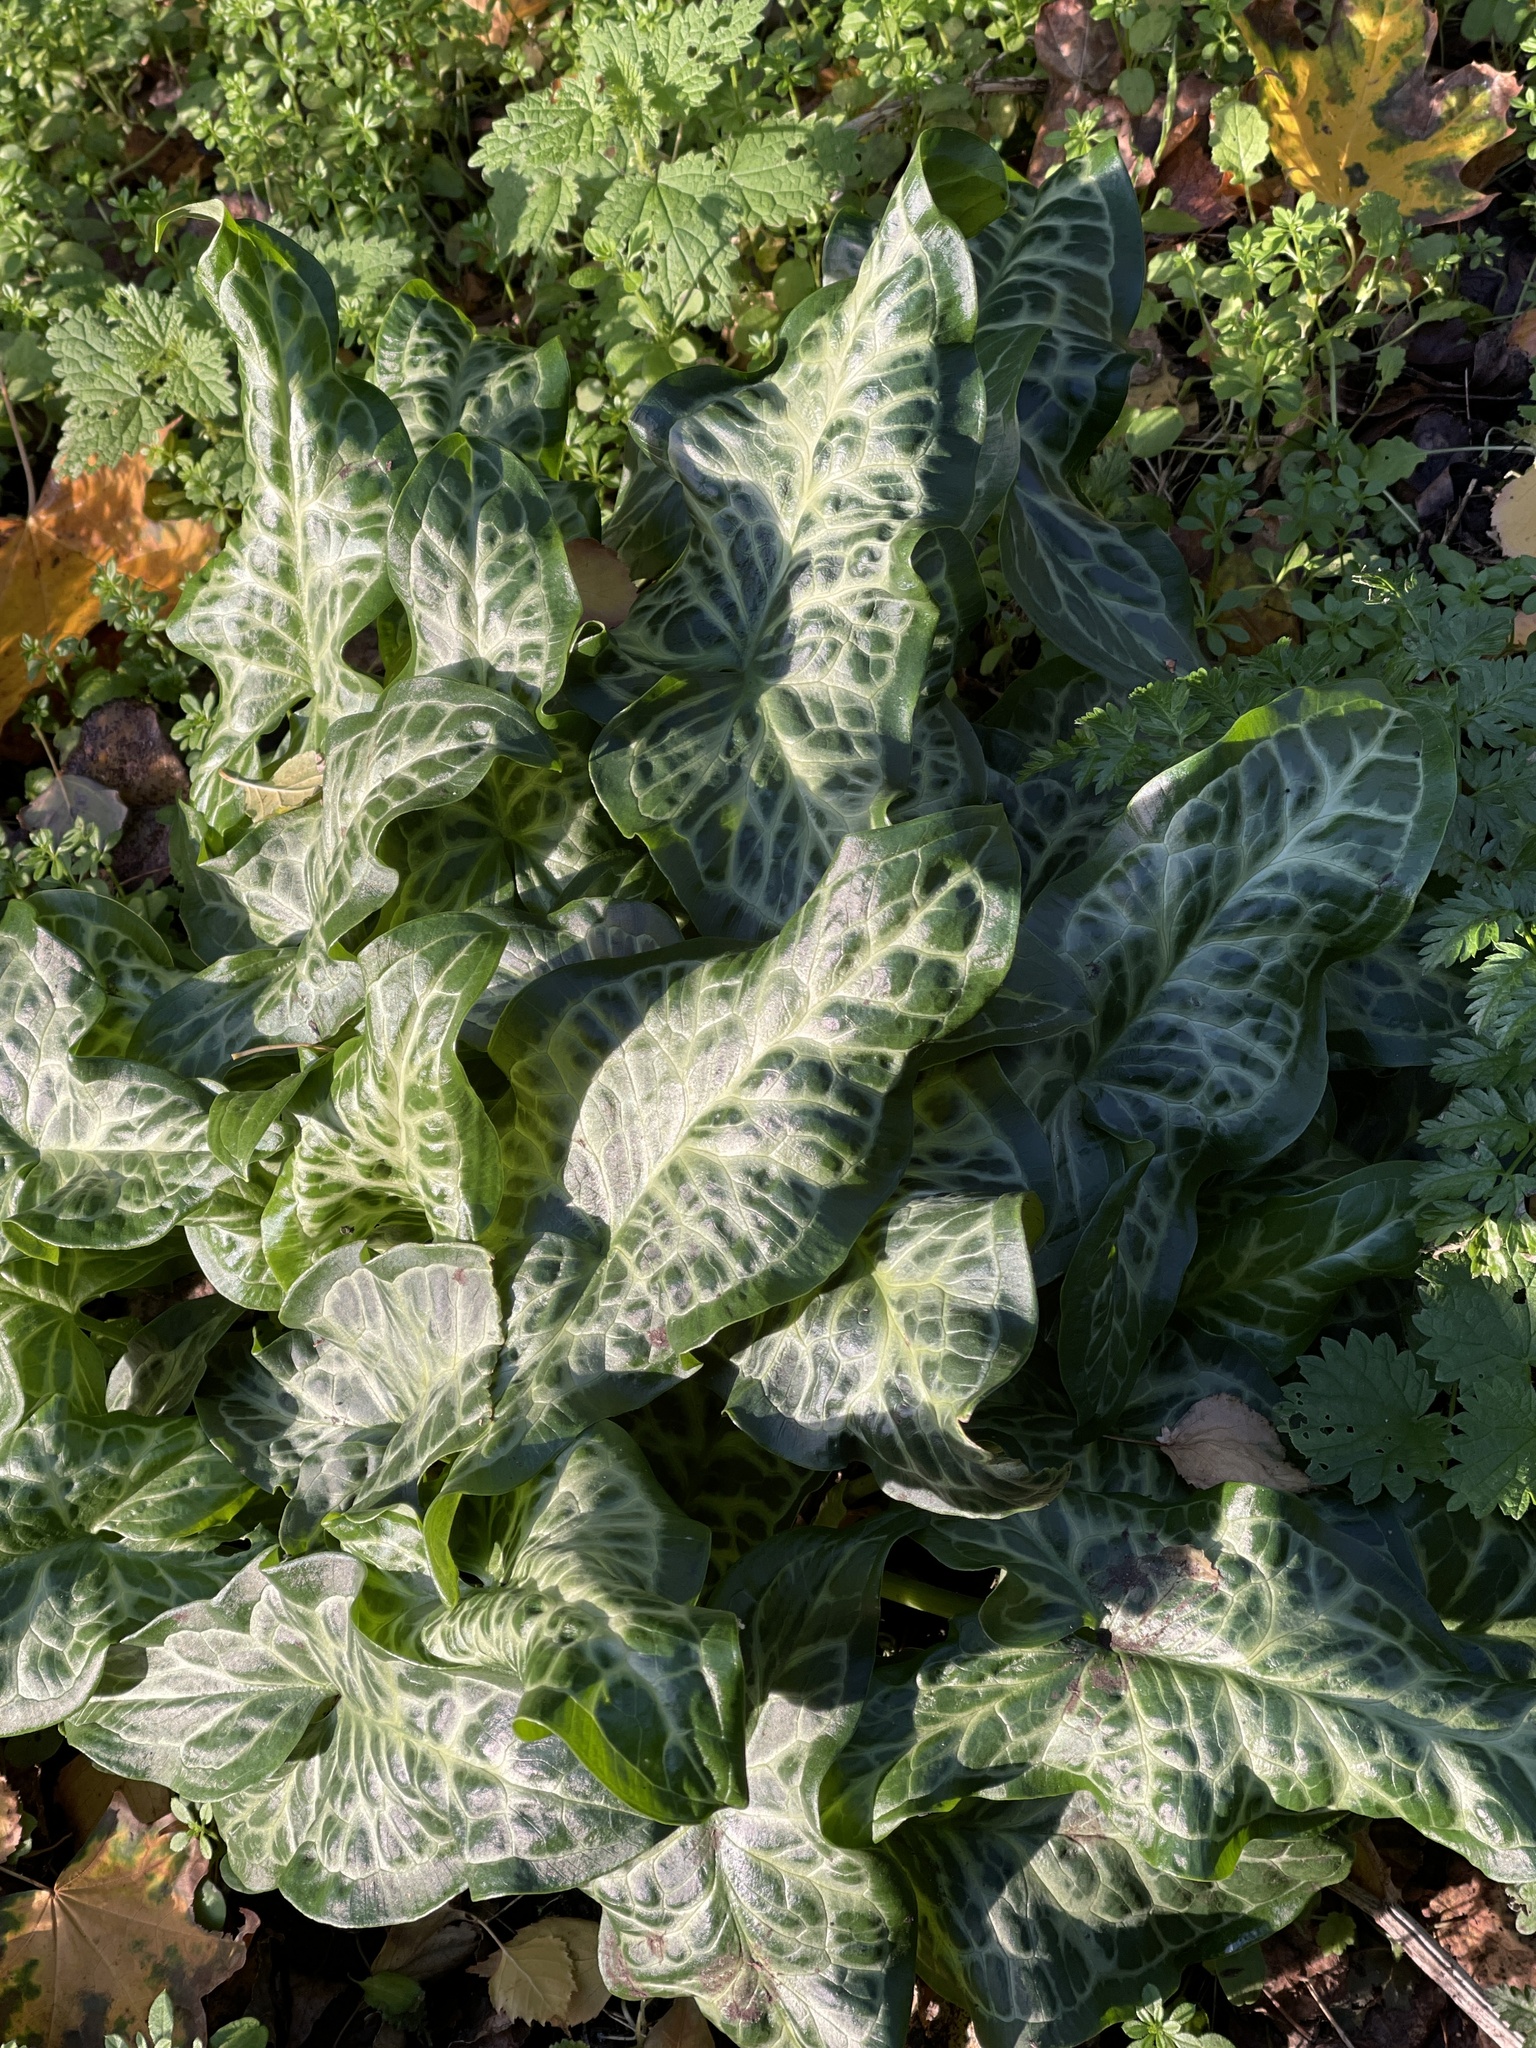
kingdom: Plantae
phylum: Tracheophyta
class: Liliopsida
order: Alismatales
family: Araceae
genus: Arum
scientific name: Arum italicum
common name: Italian lords-and-ladies
